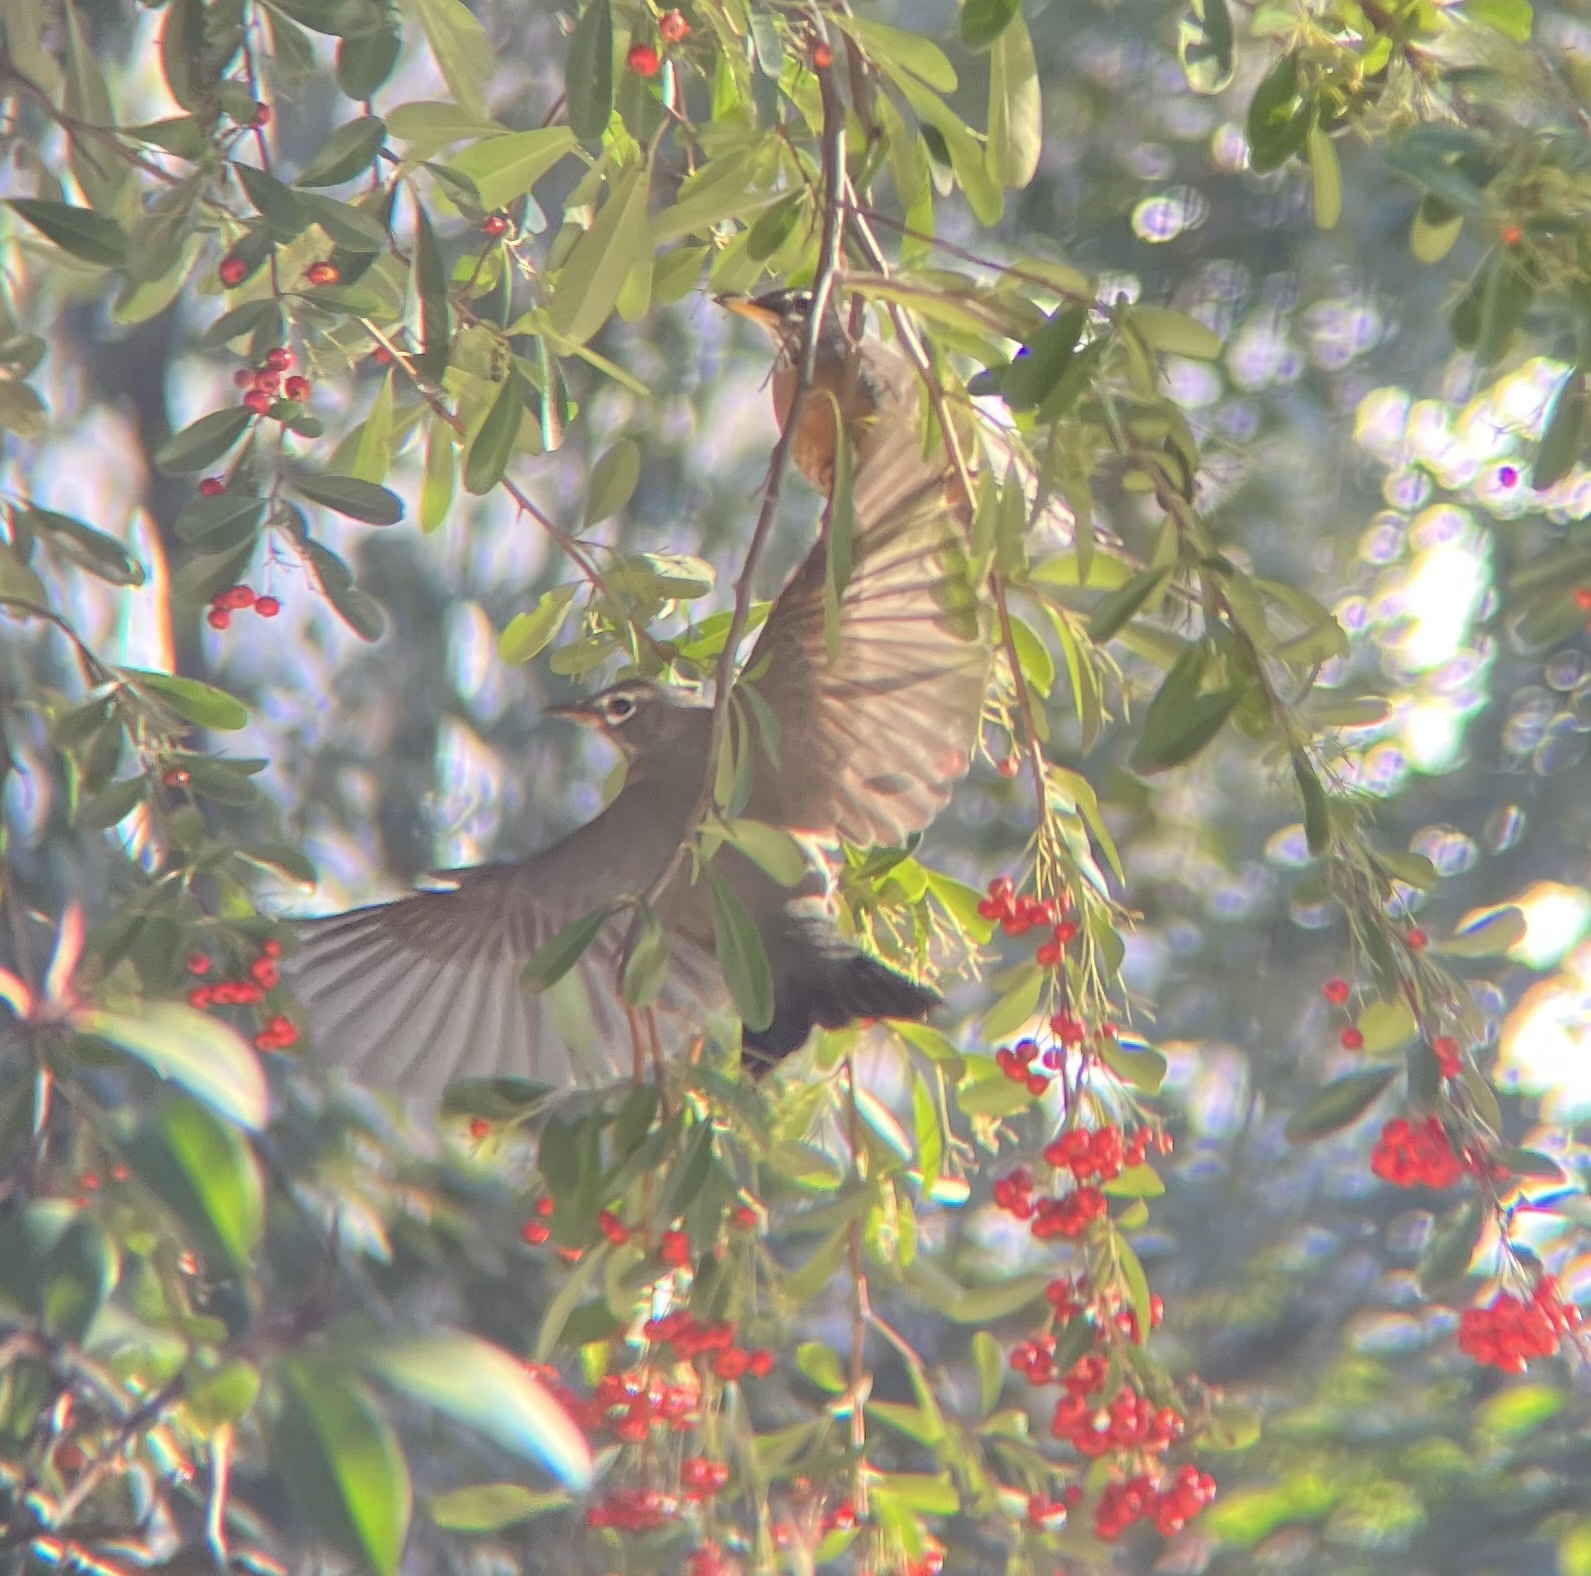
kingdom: Animalia
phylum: Chordata
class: Aves
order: Passeriformes
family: Turdidae
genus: Turdus
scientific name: Turdus migratorius
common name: American robin
